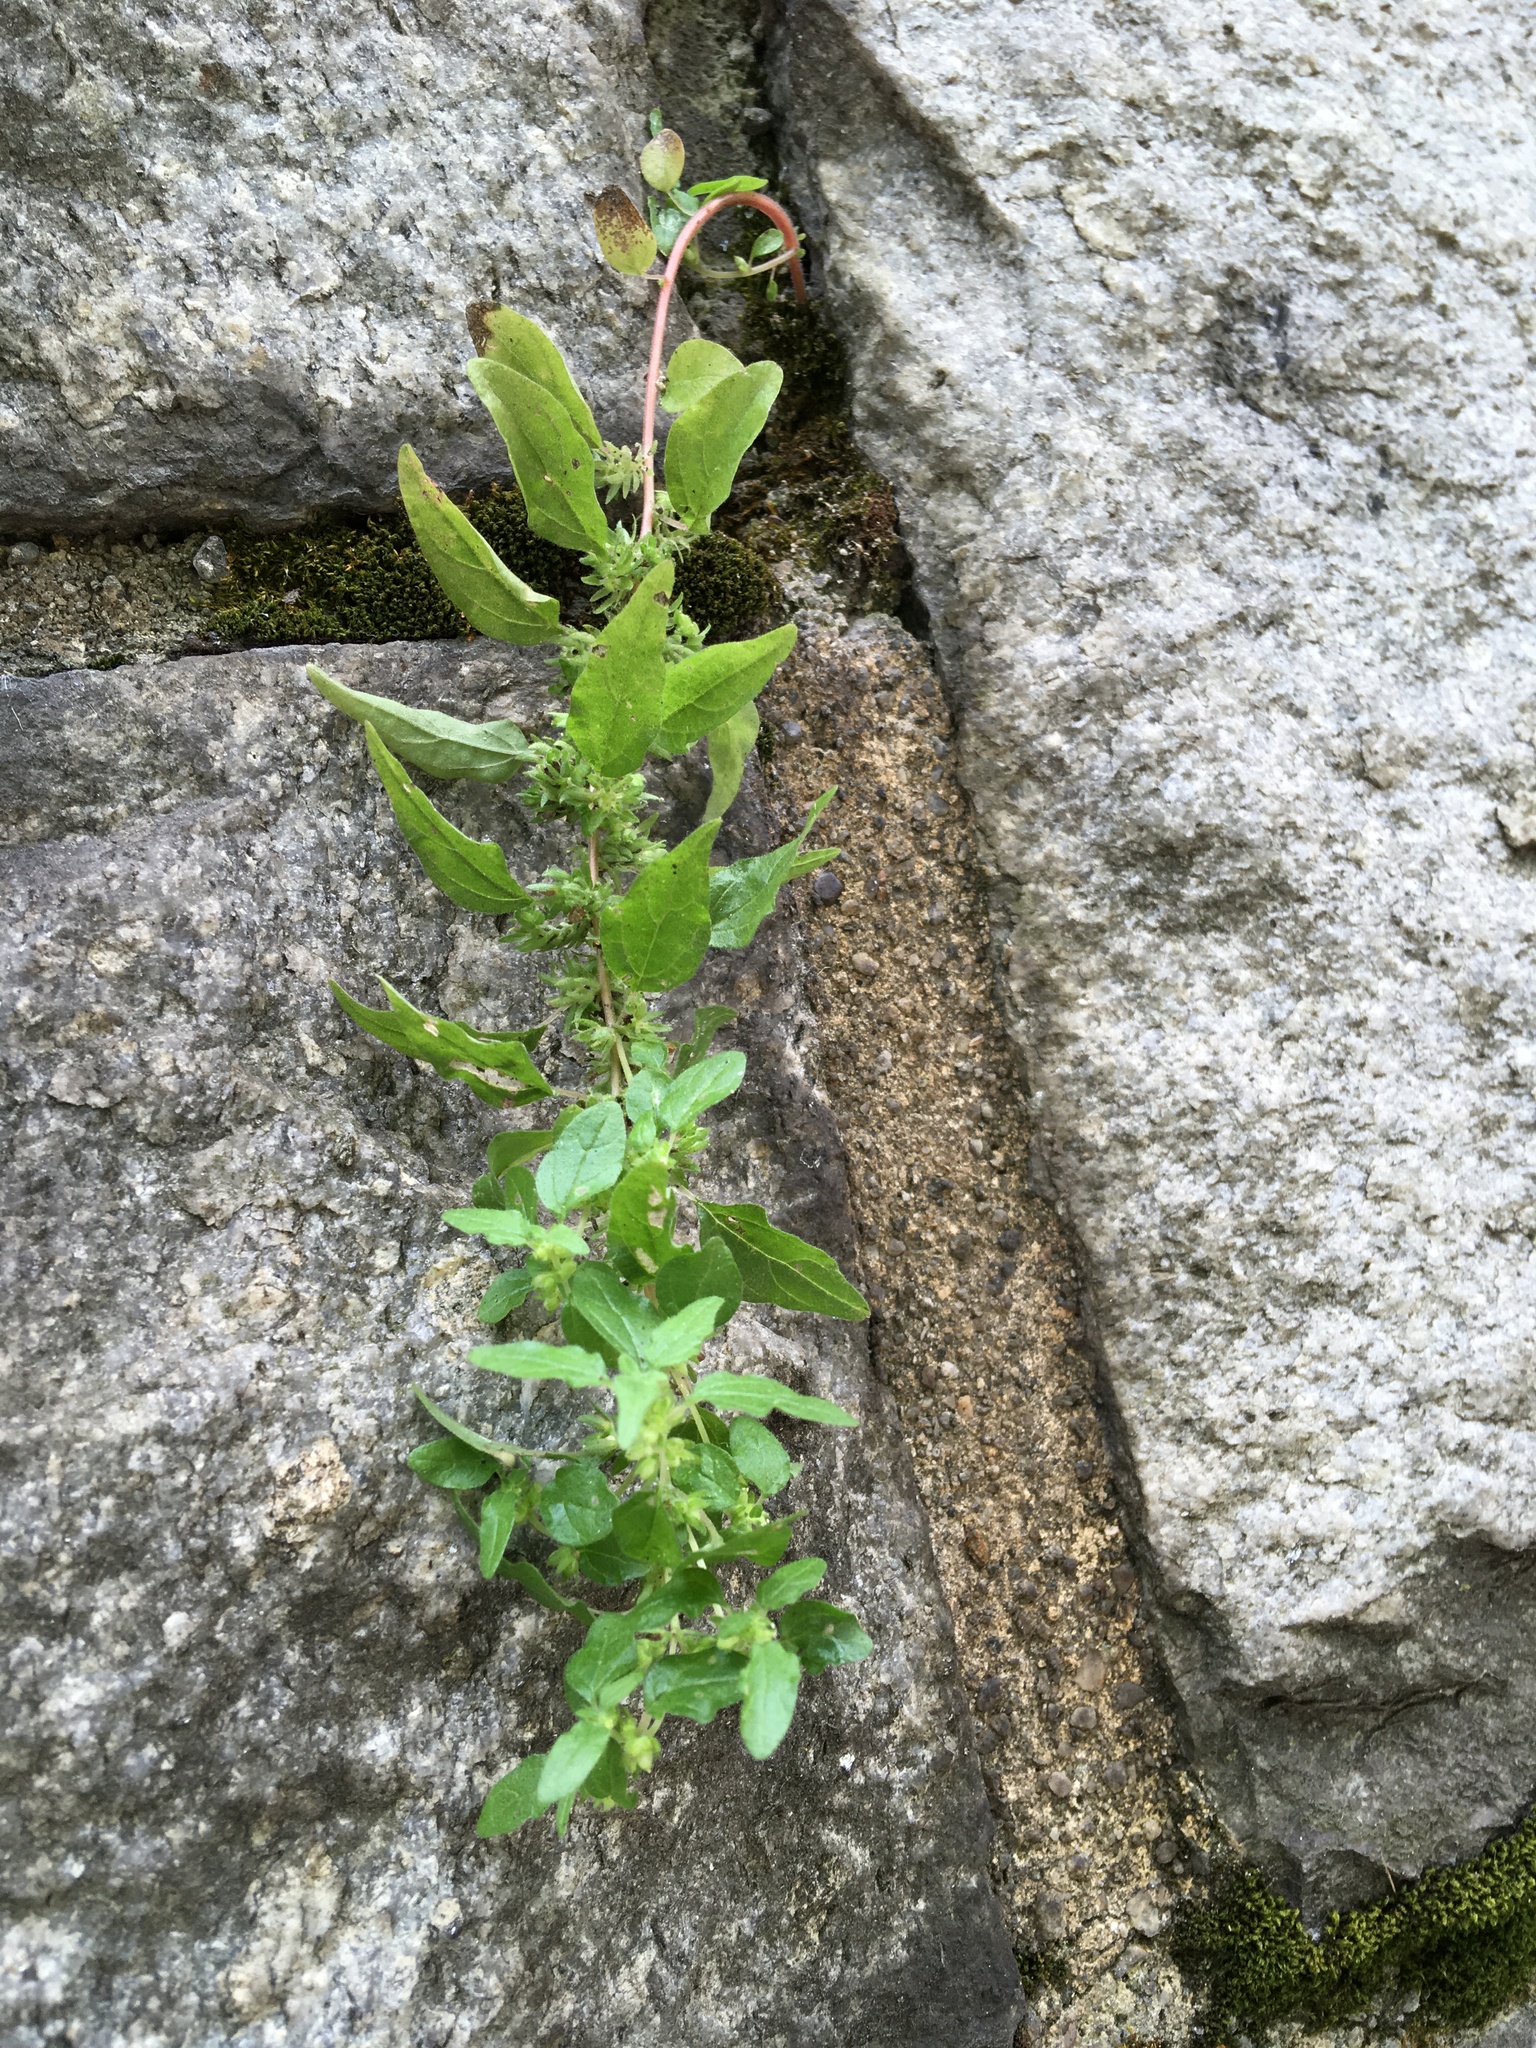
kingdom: Plantae
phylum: Tracheophyta
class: Magnoliopsida
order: Rosales
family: Urticaceae
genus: Parietaria
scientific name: Parietaria pensylvanica
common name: Pennsylvania pellitory
